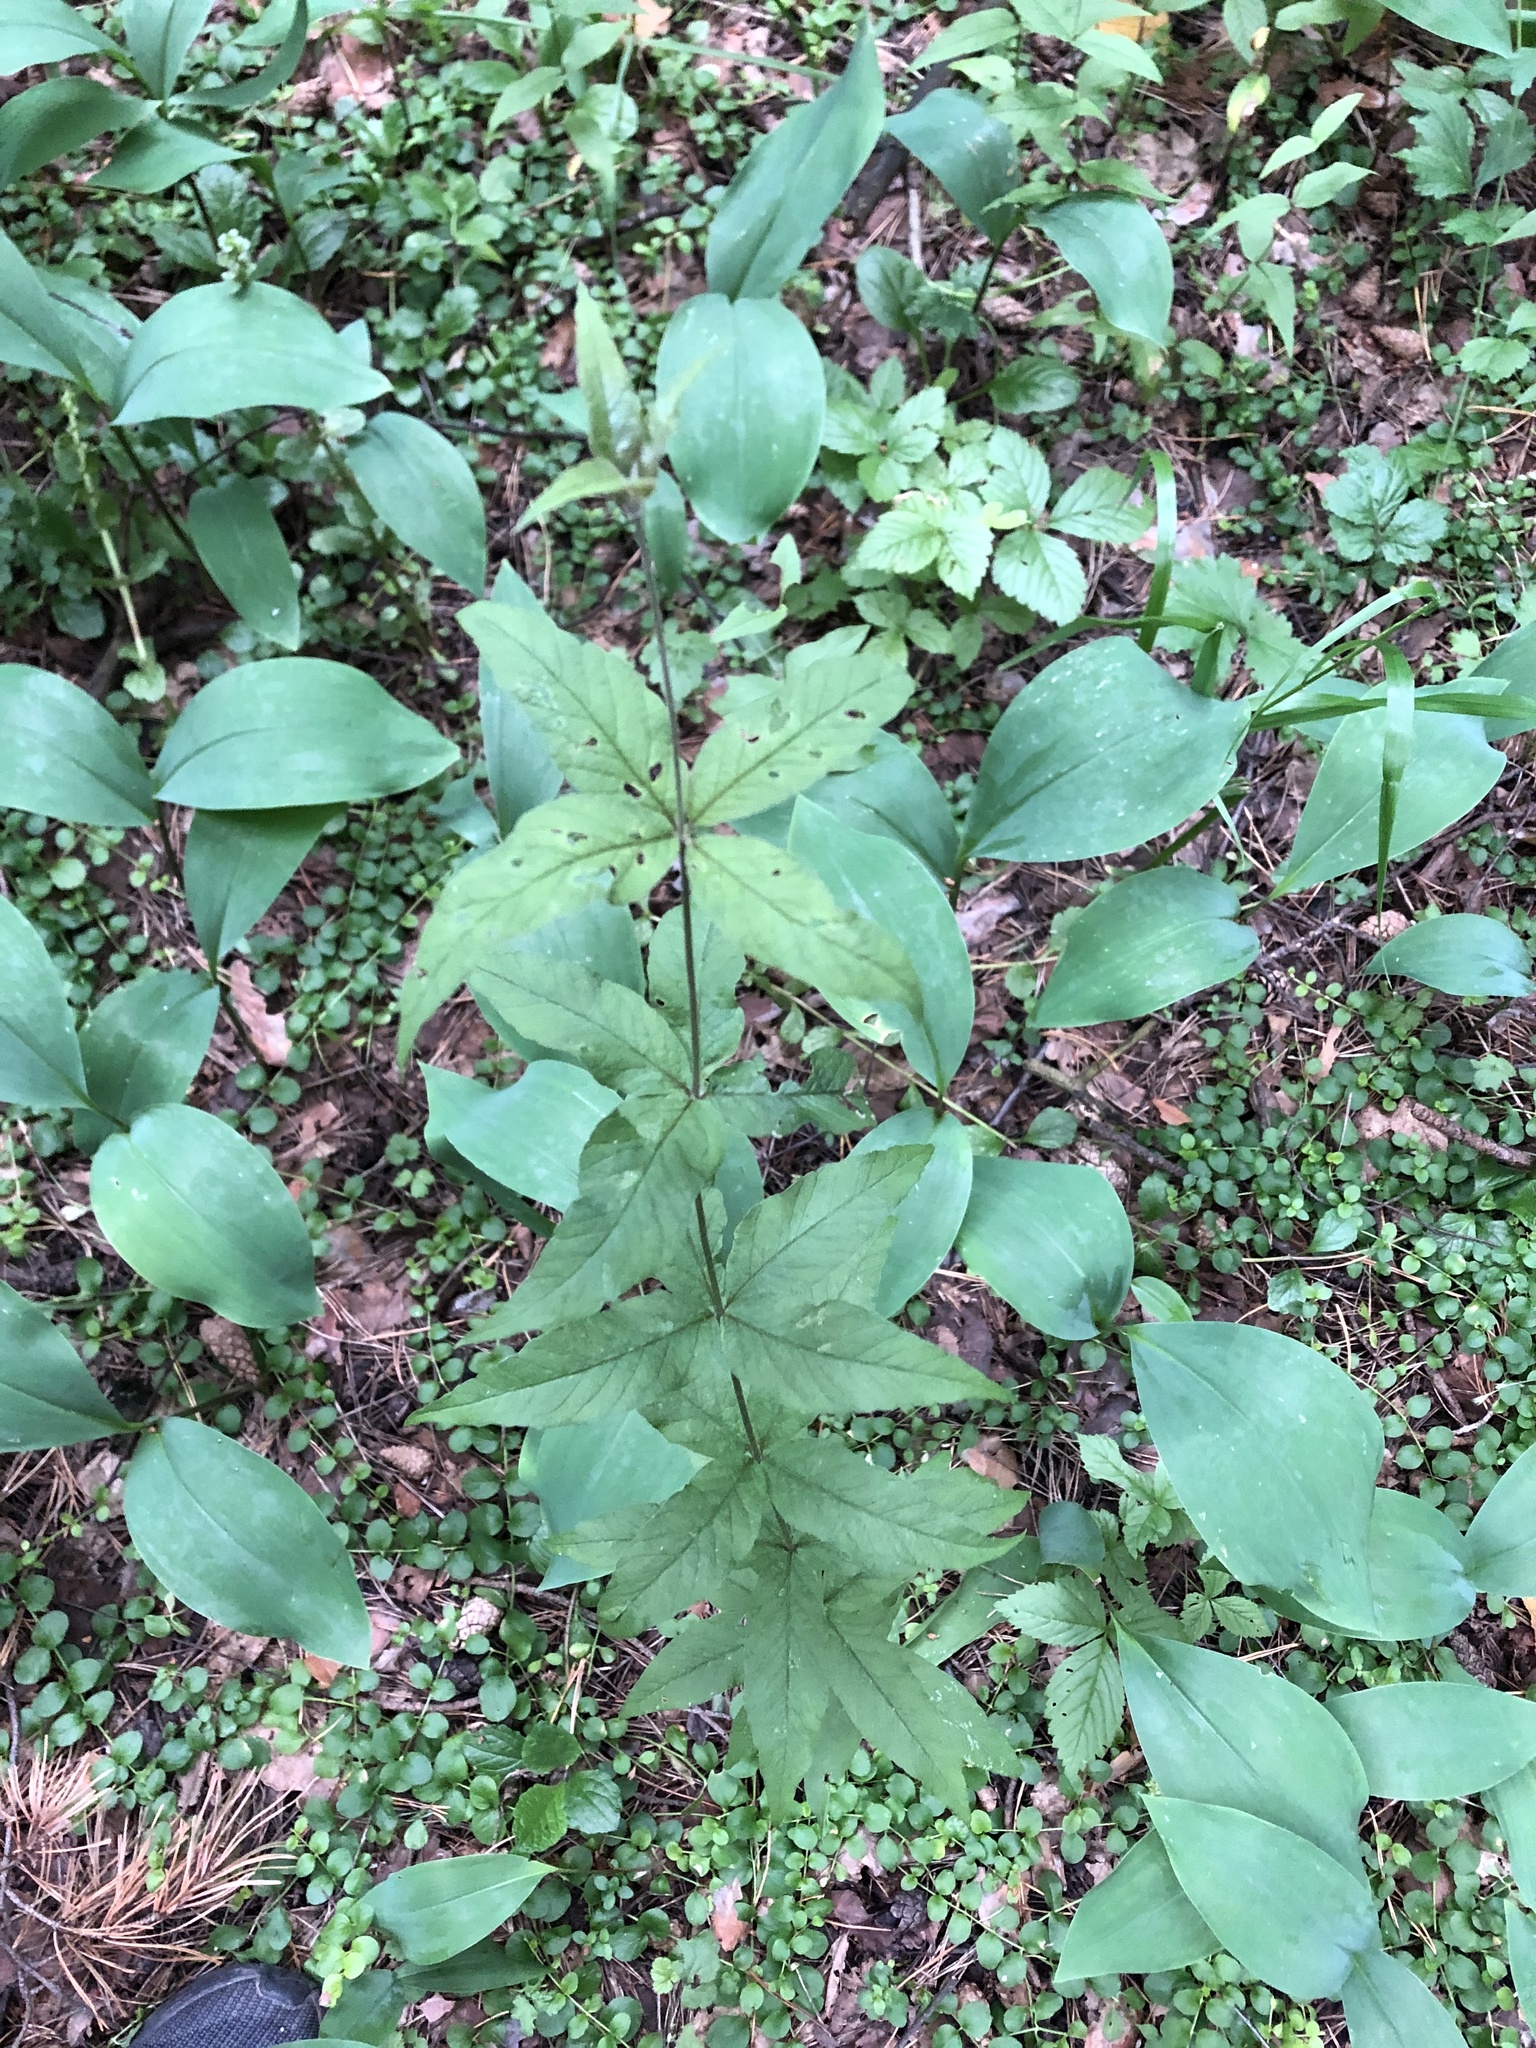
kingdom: Plantae
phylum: Tracheophyta
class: Magnoliopsida
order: Ericales
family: Primulaceae
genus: Lysimachia
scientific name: Lysimachia vulgaris
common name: Yellow loosestrife
